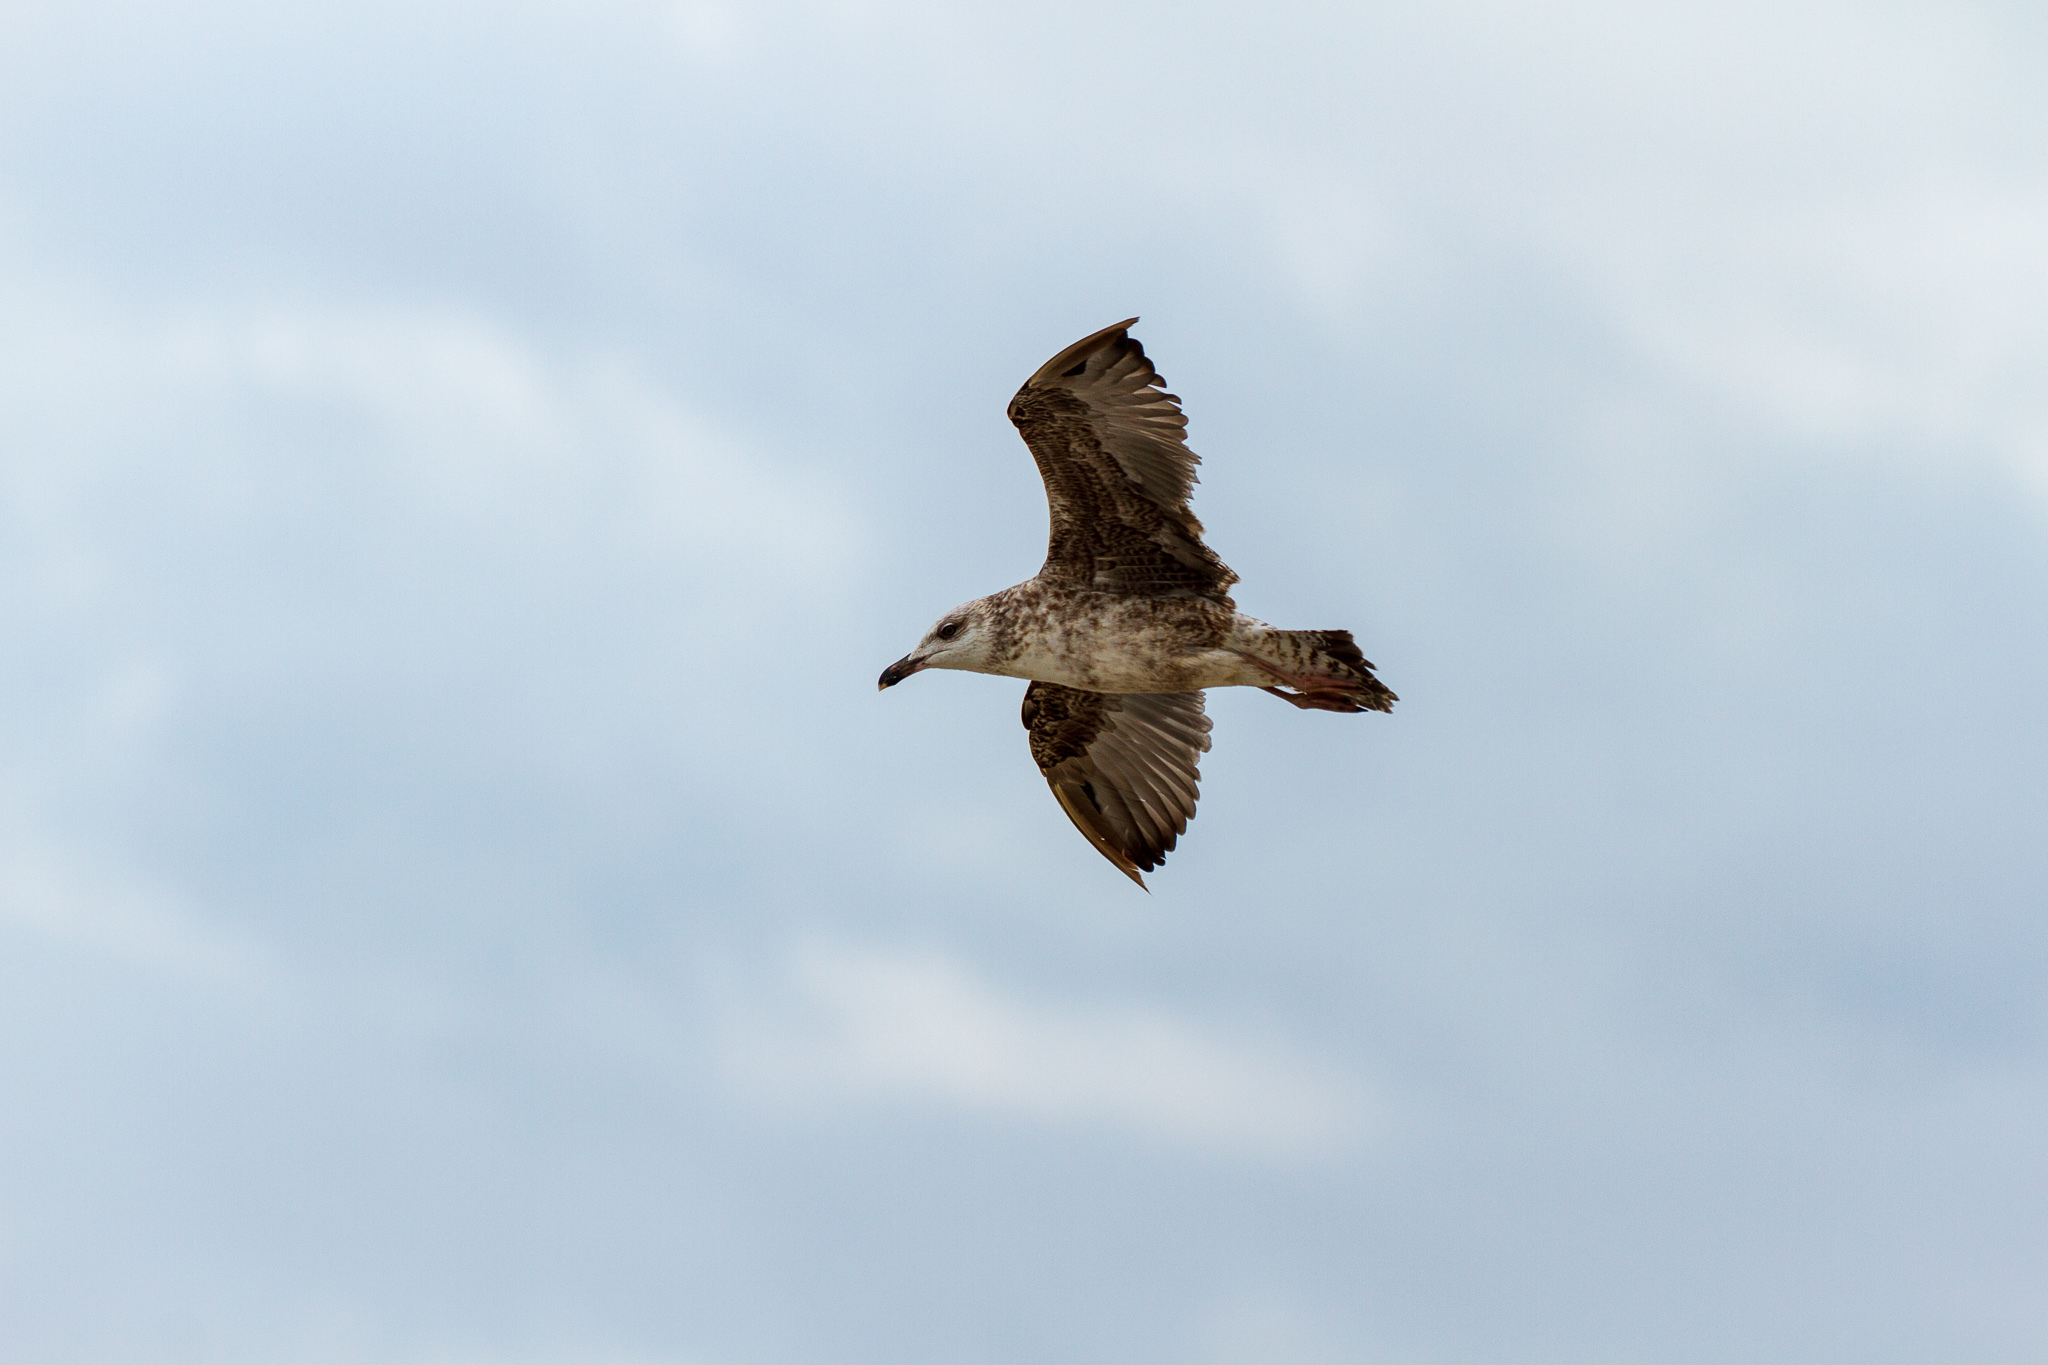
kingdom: Animalia
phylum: Chordata
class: Aves
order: Charadriiformes
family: Laridae
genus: Larus
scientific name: Larus marinus
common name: Great black-backed gull
